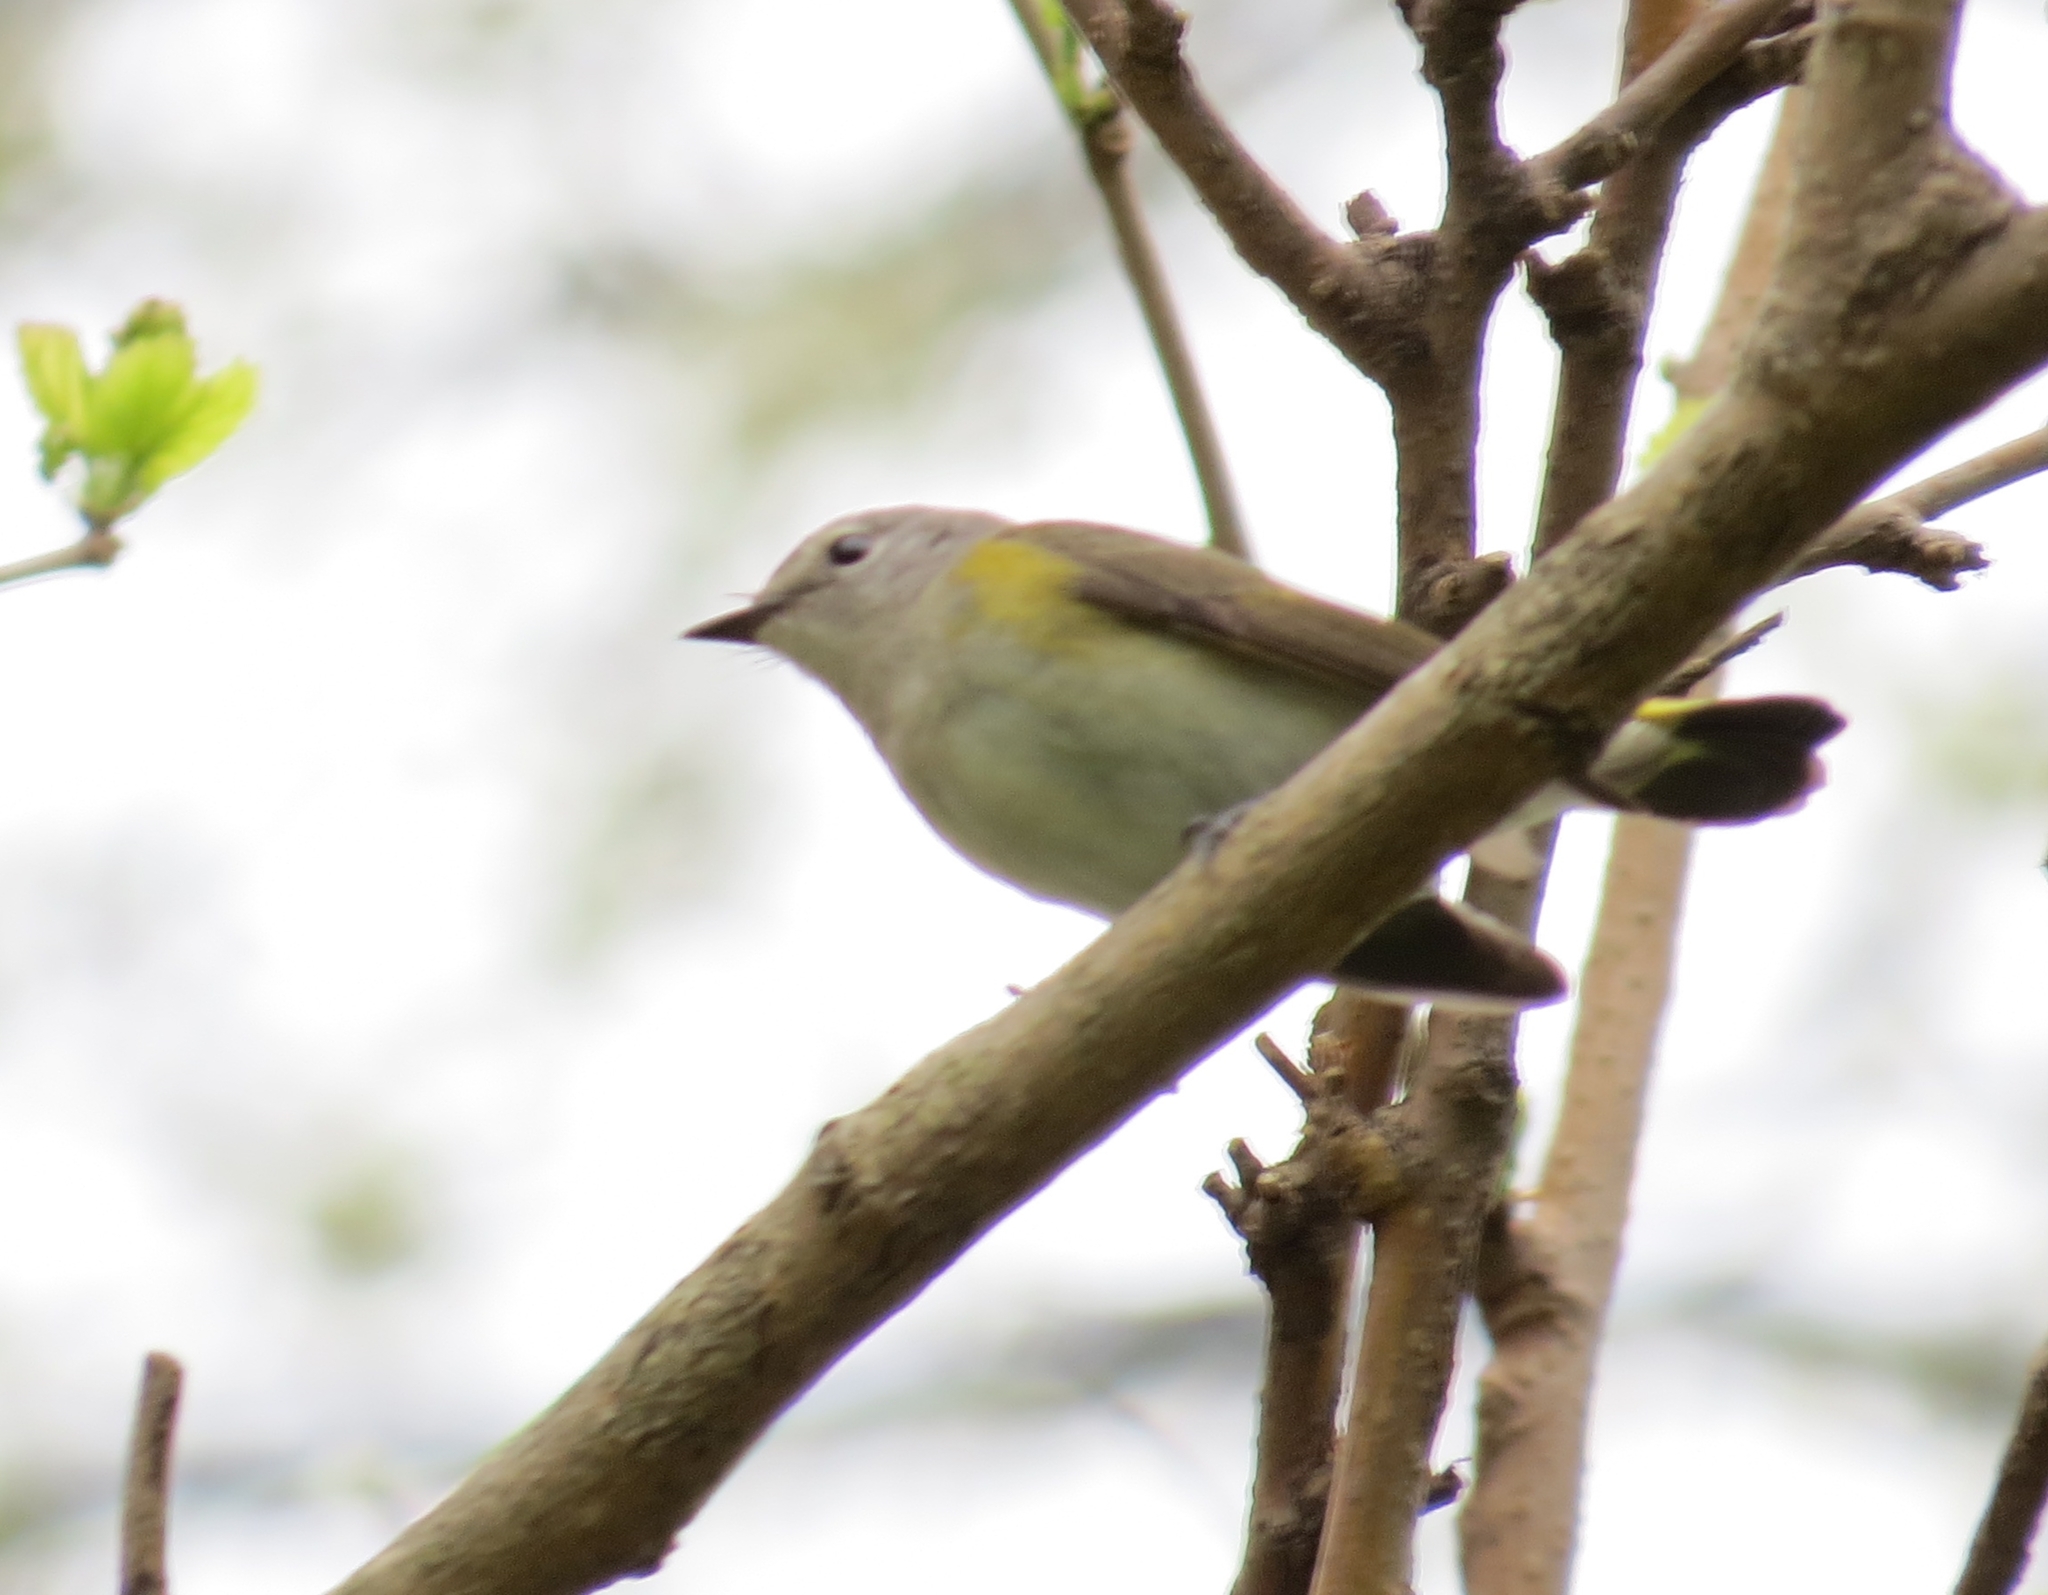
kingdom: Animalia
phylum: Chordata
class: Aves
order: Passeriformes
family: Parulidae
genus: Setophaga
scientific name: Setophaga ruticilla
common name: American redstart
